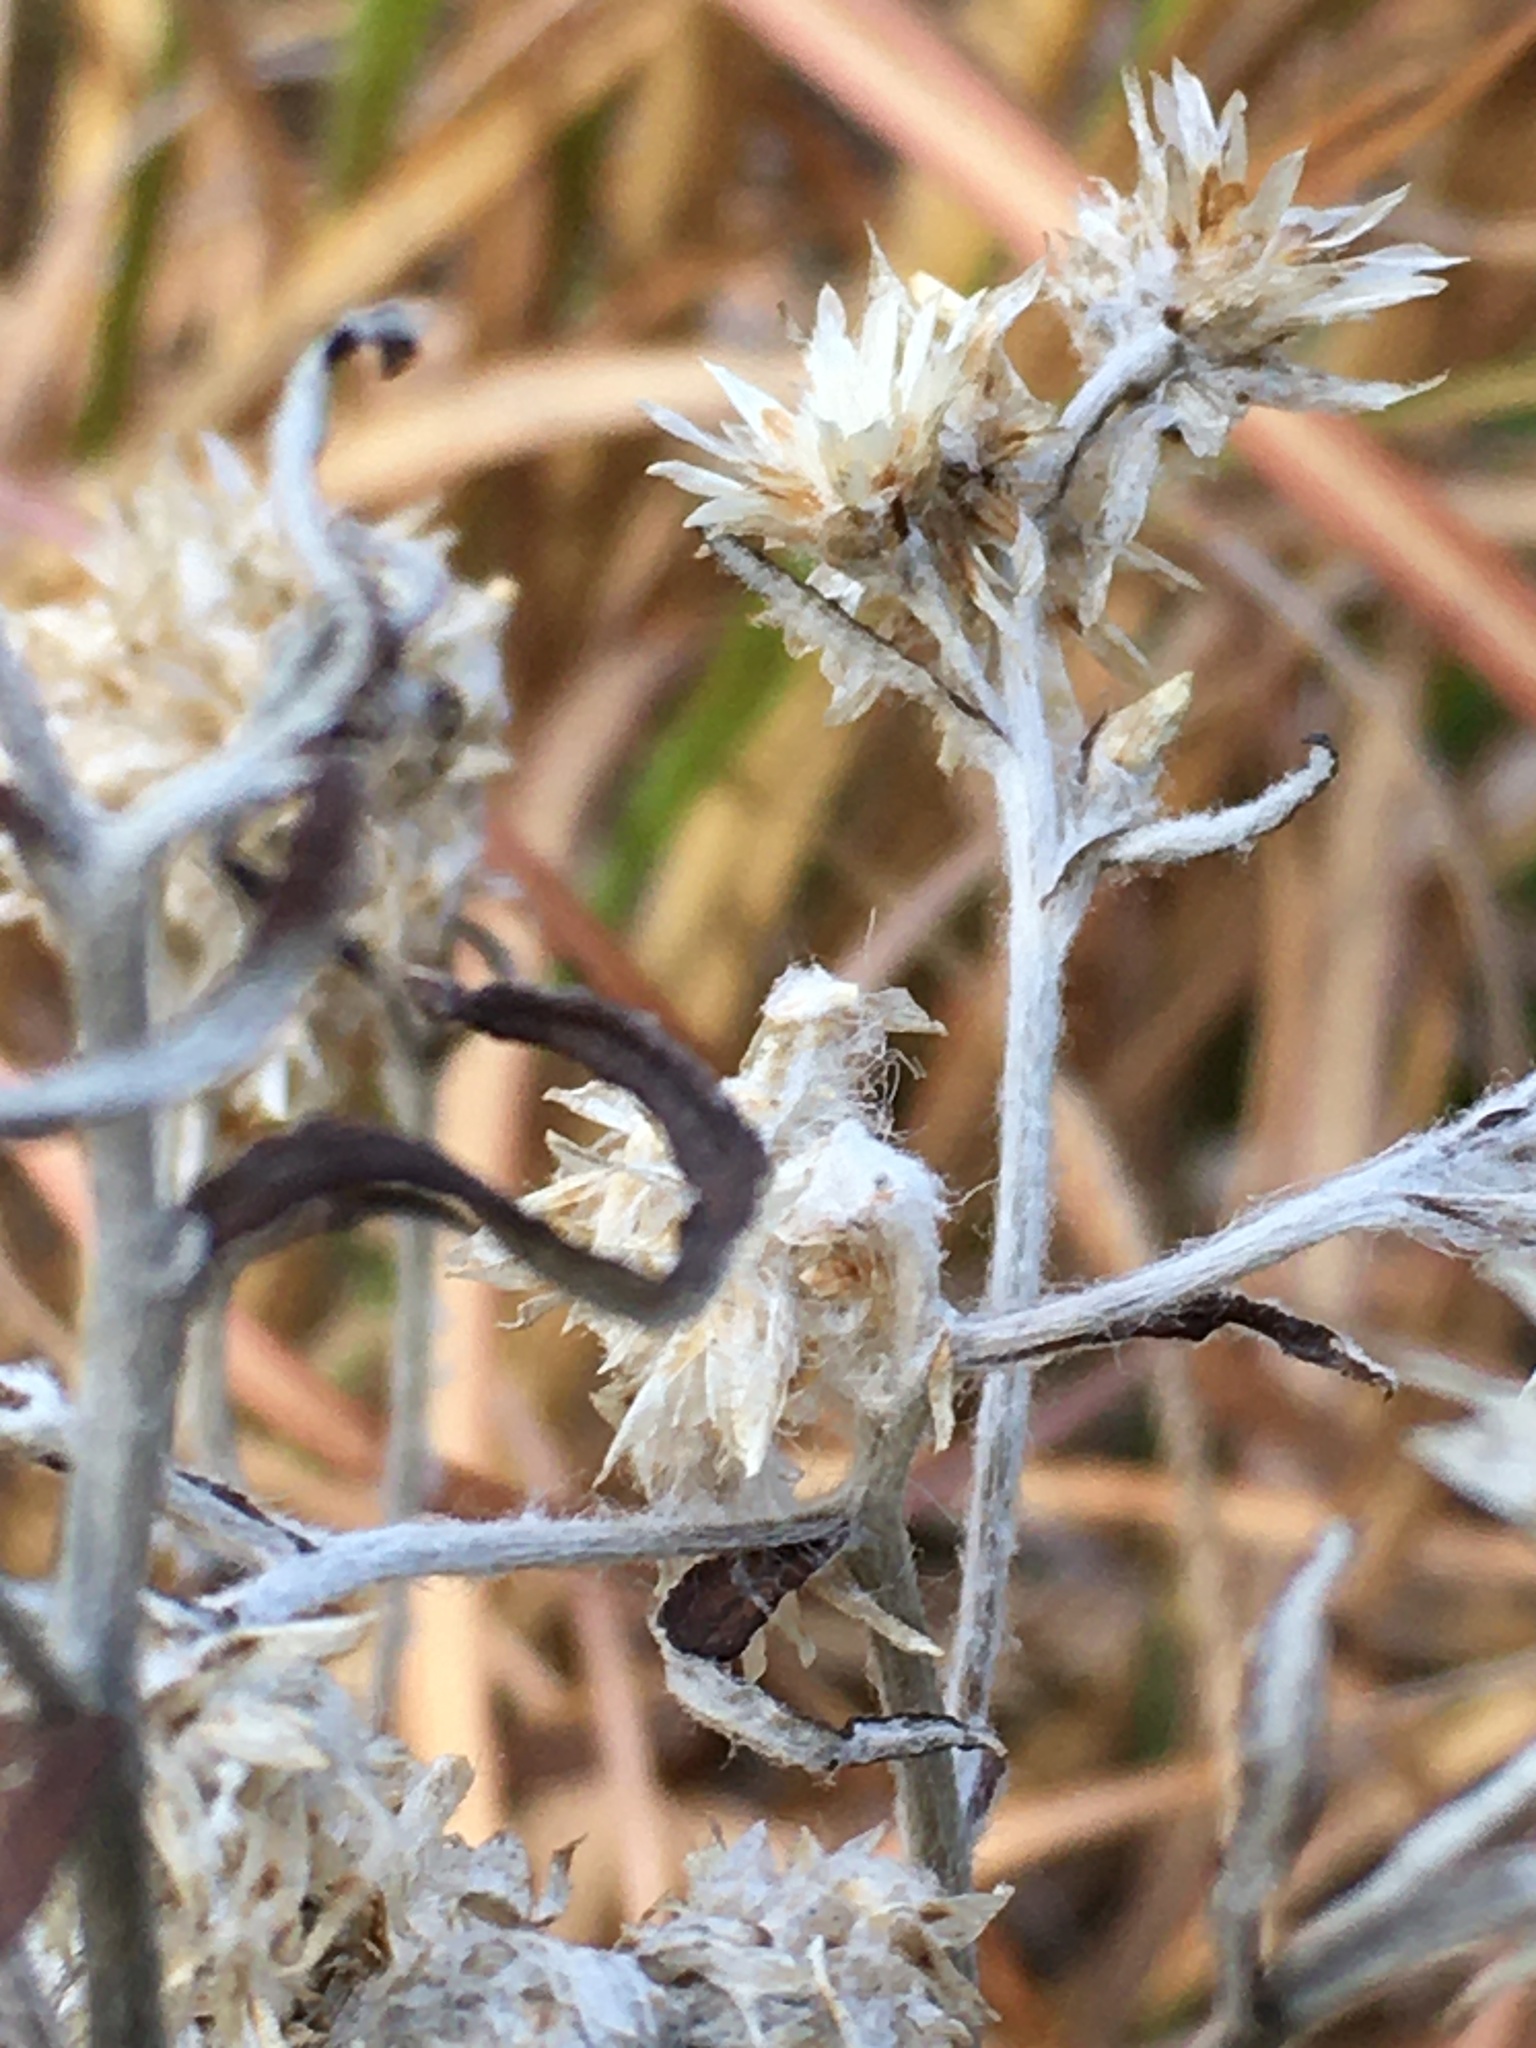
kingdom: Plantae
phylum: Tracheophyta
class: Magnoliopsida
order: Asterales
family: Asteraceae
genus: Pseudognaphalium
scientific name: Pseudognaphalium obtusifolium
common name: Eastern rabbit-tobacco
